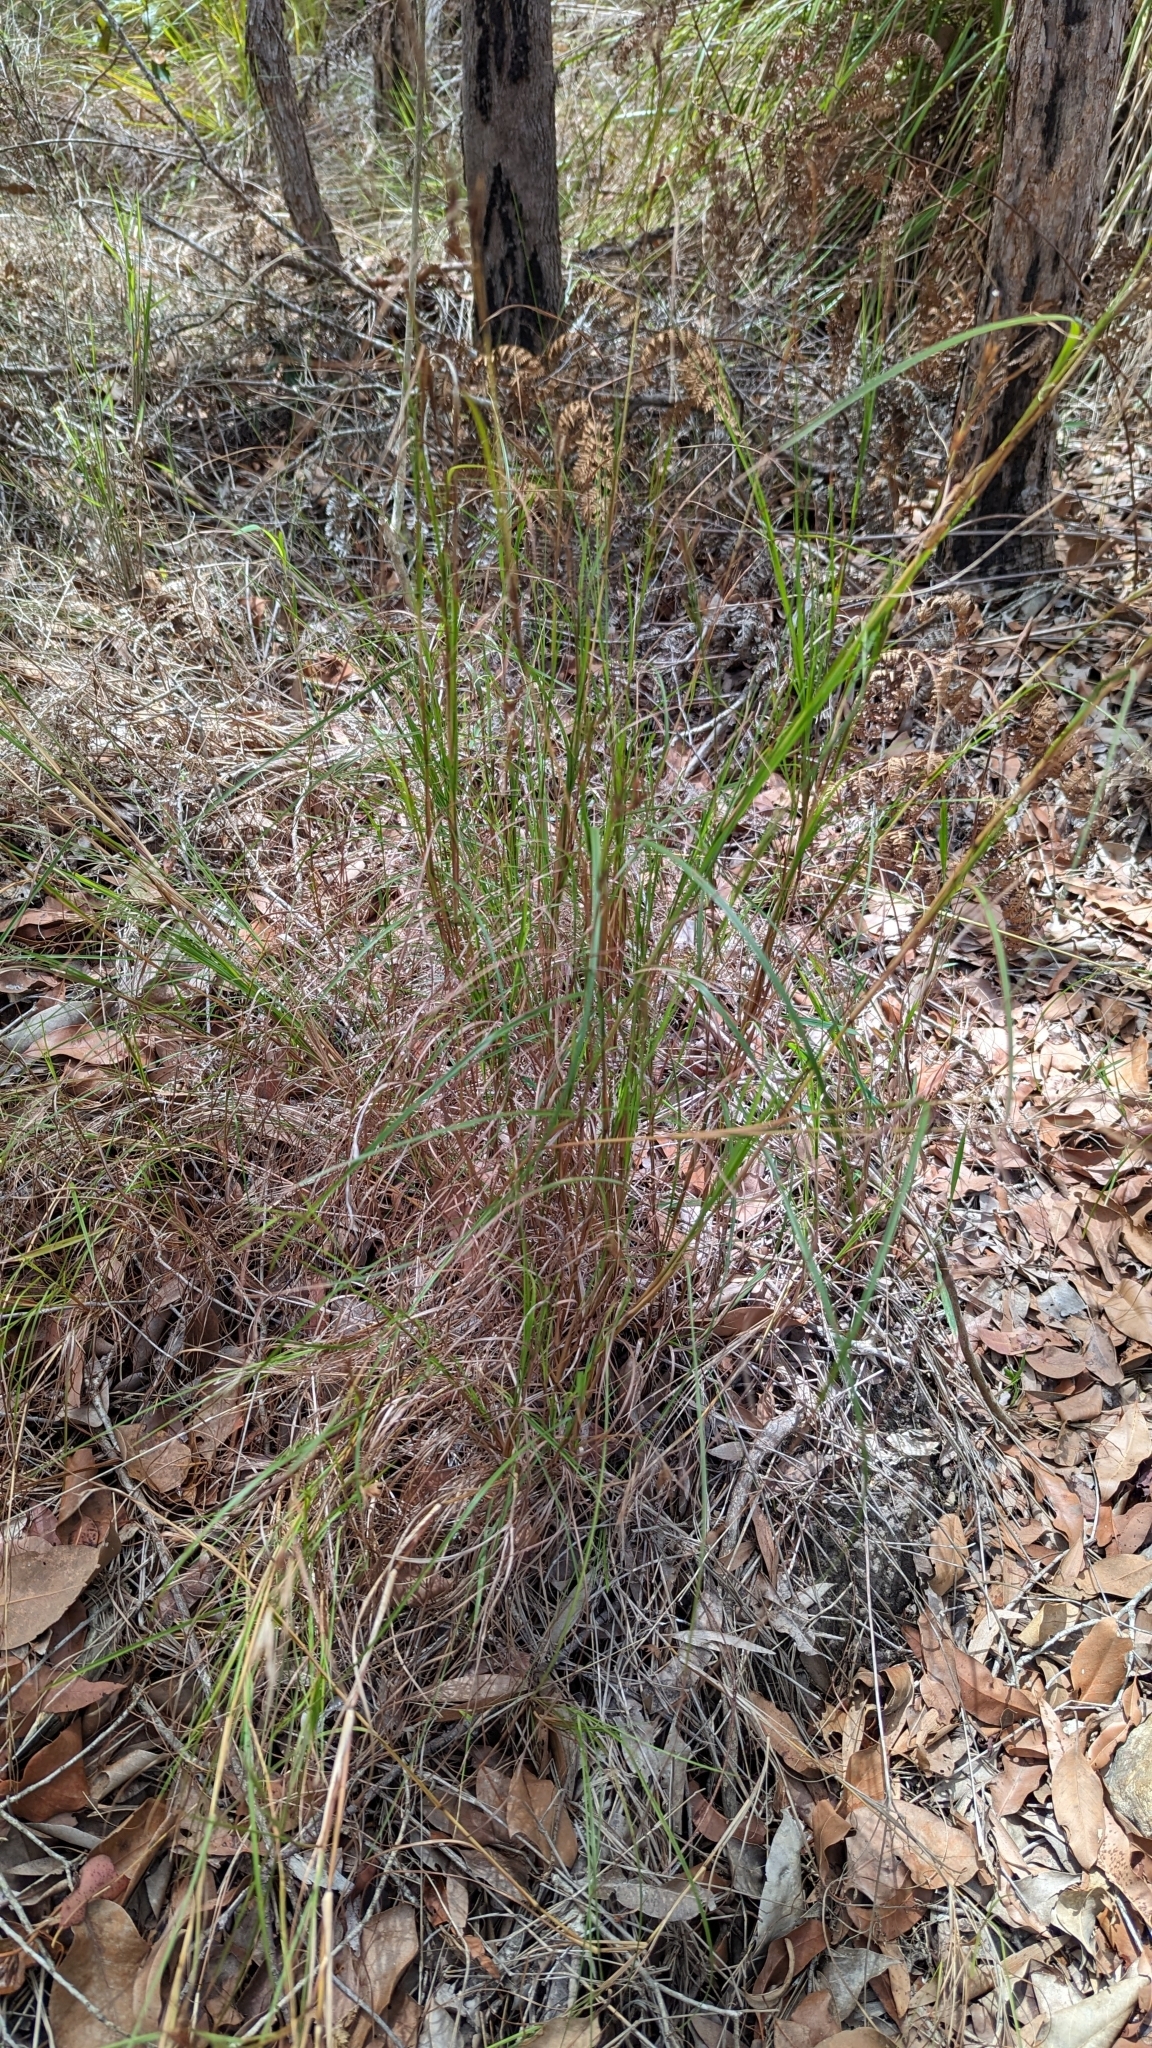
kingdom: Plantae
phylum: Tracheophyta
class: Liliopsida
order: Poales
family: Poaceae
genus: Themeda
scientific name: Themeda triandra
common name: Kangaroo grass
